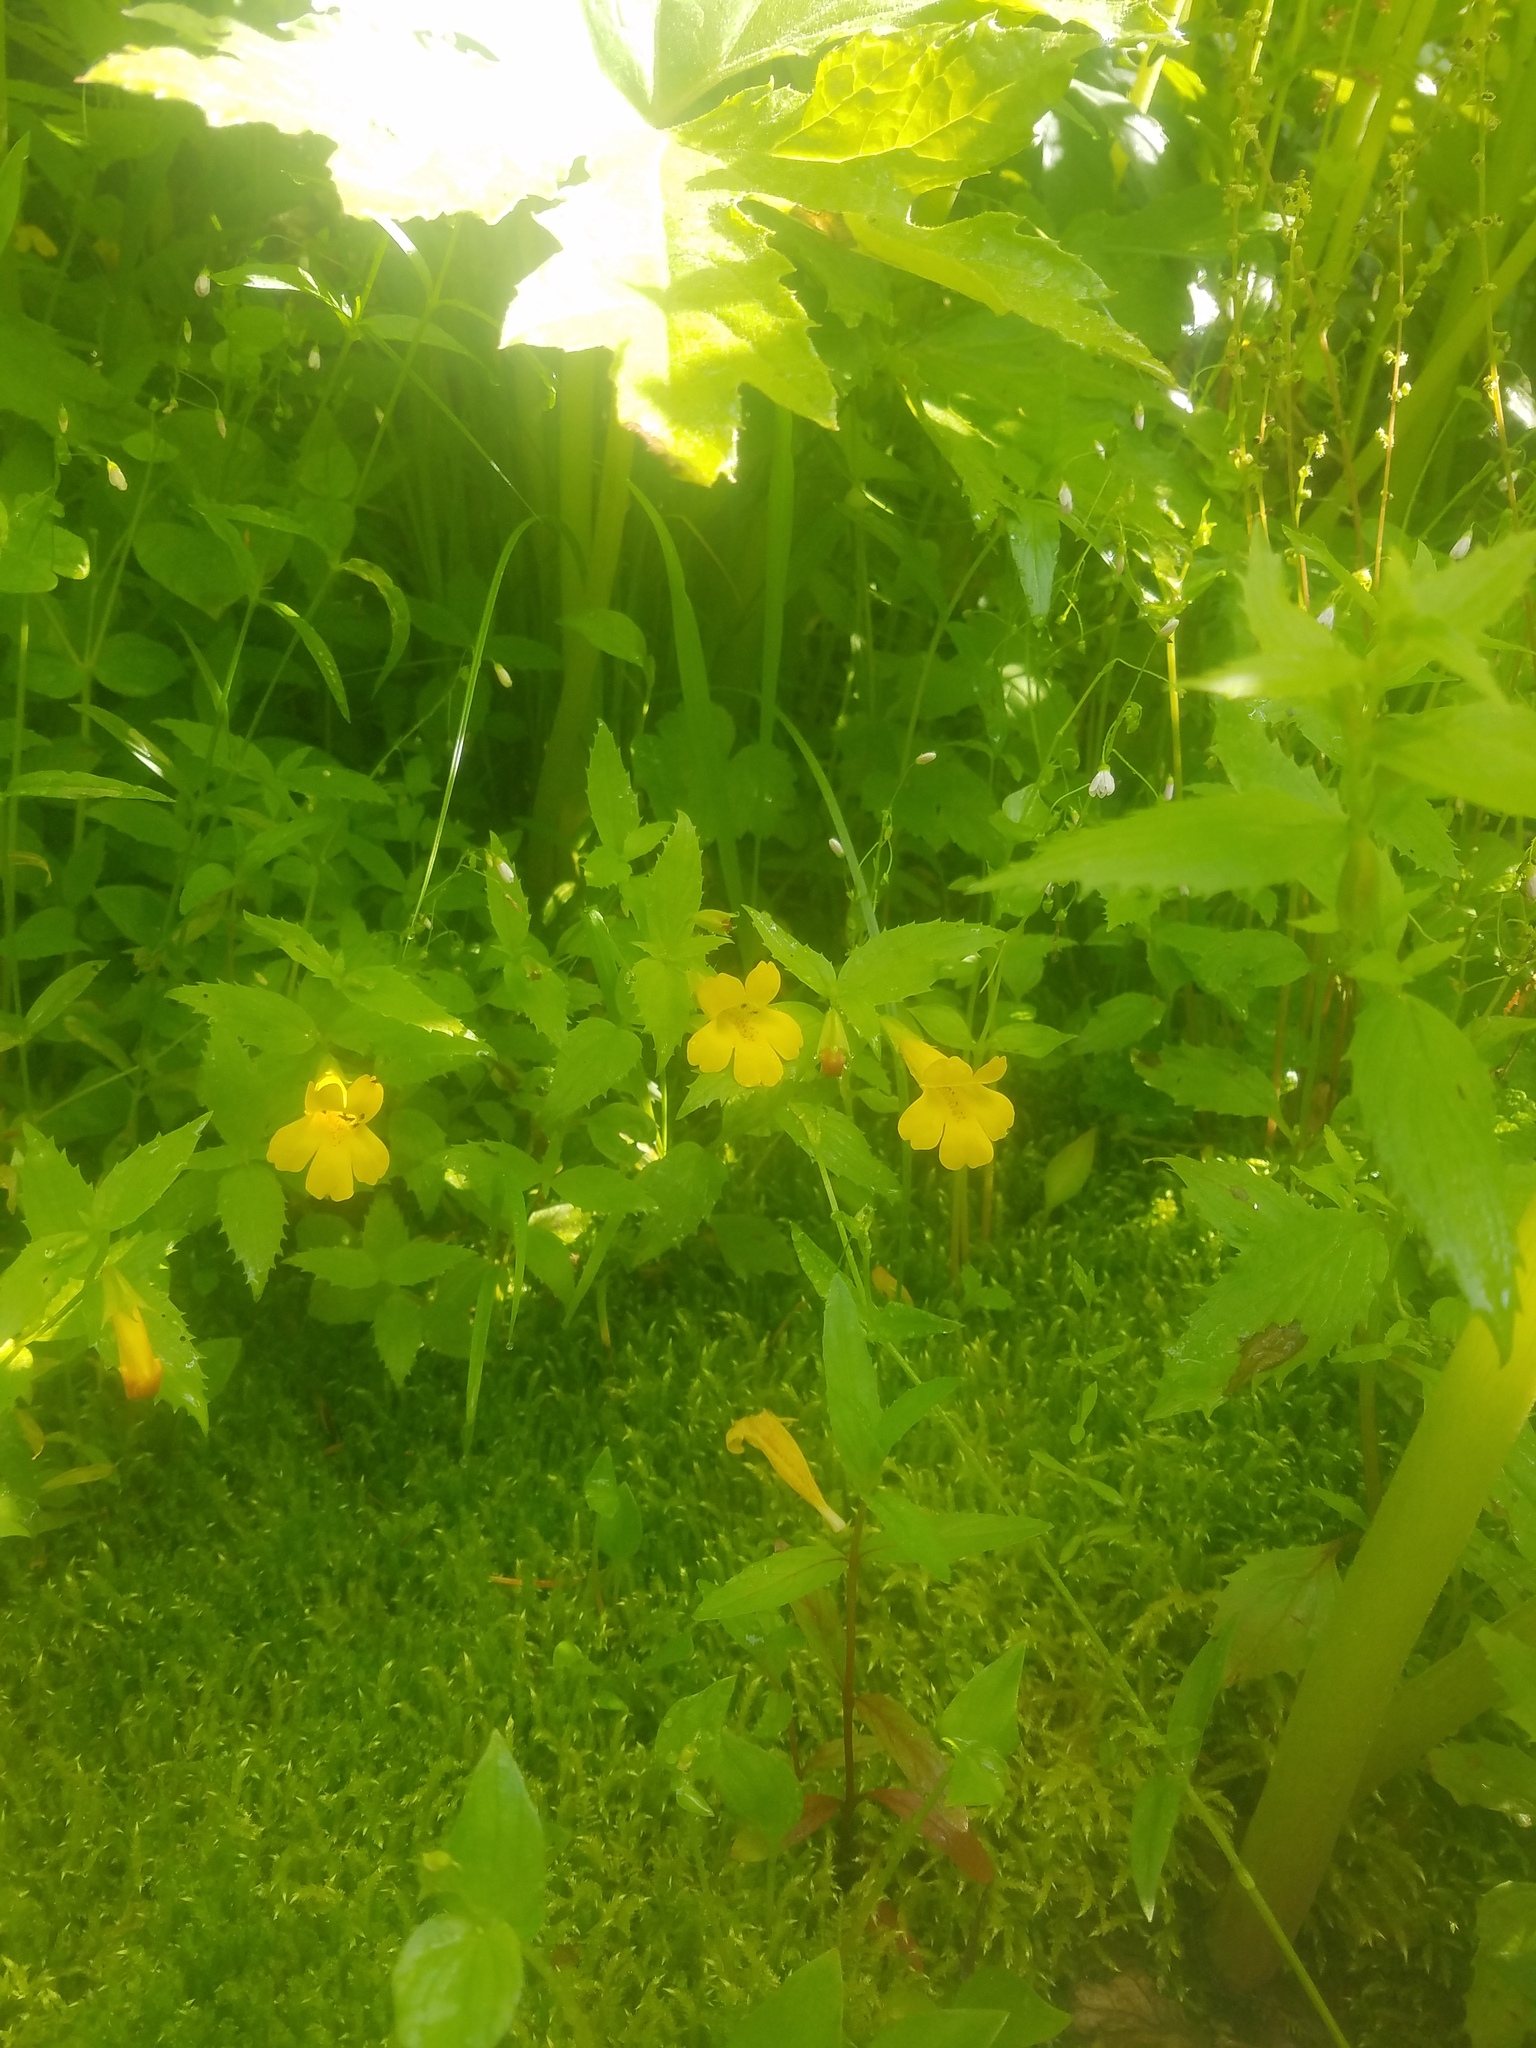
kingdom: Plantae
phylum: Tracheophyta
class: Magnoliopsida
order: Lamiales
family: Phrymaceae
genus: Erythranthe
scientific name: Erythranthe dentata
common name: Coastal monkeyflower
